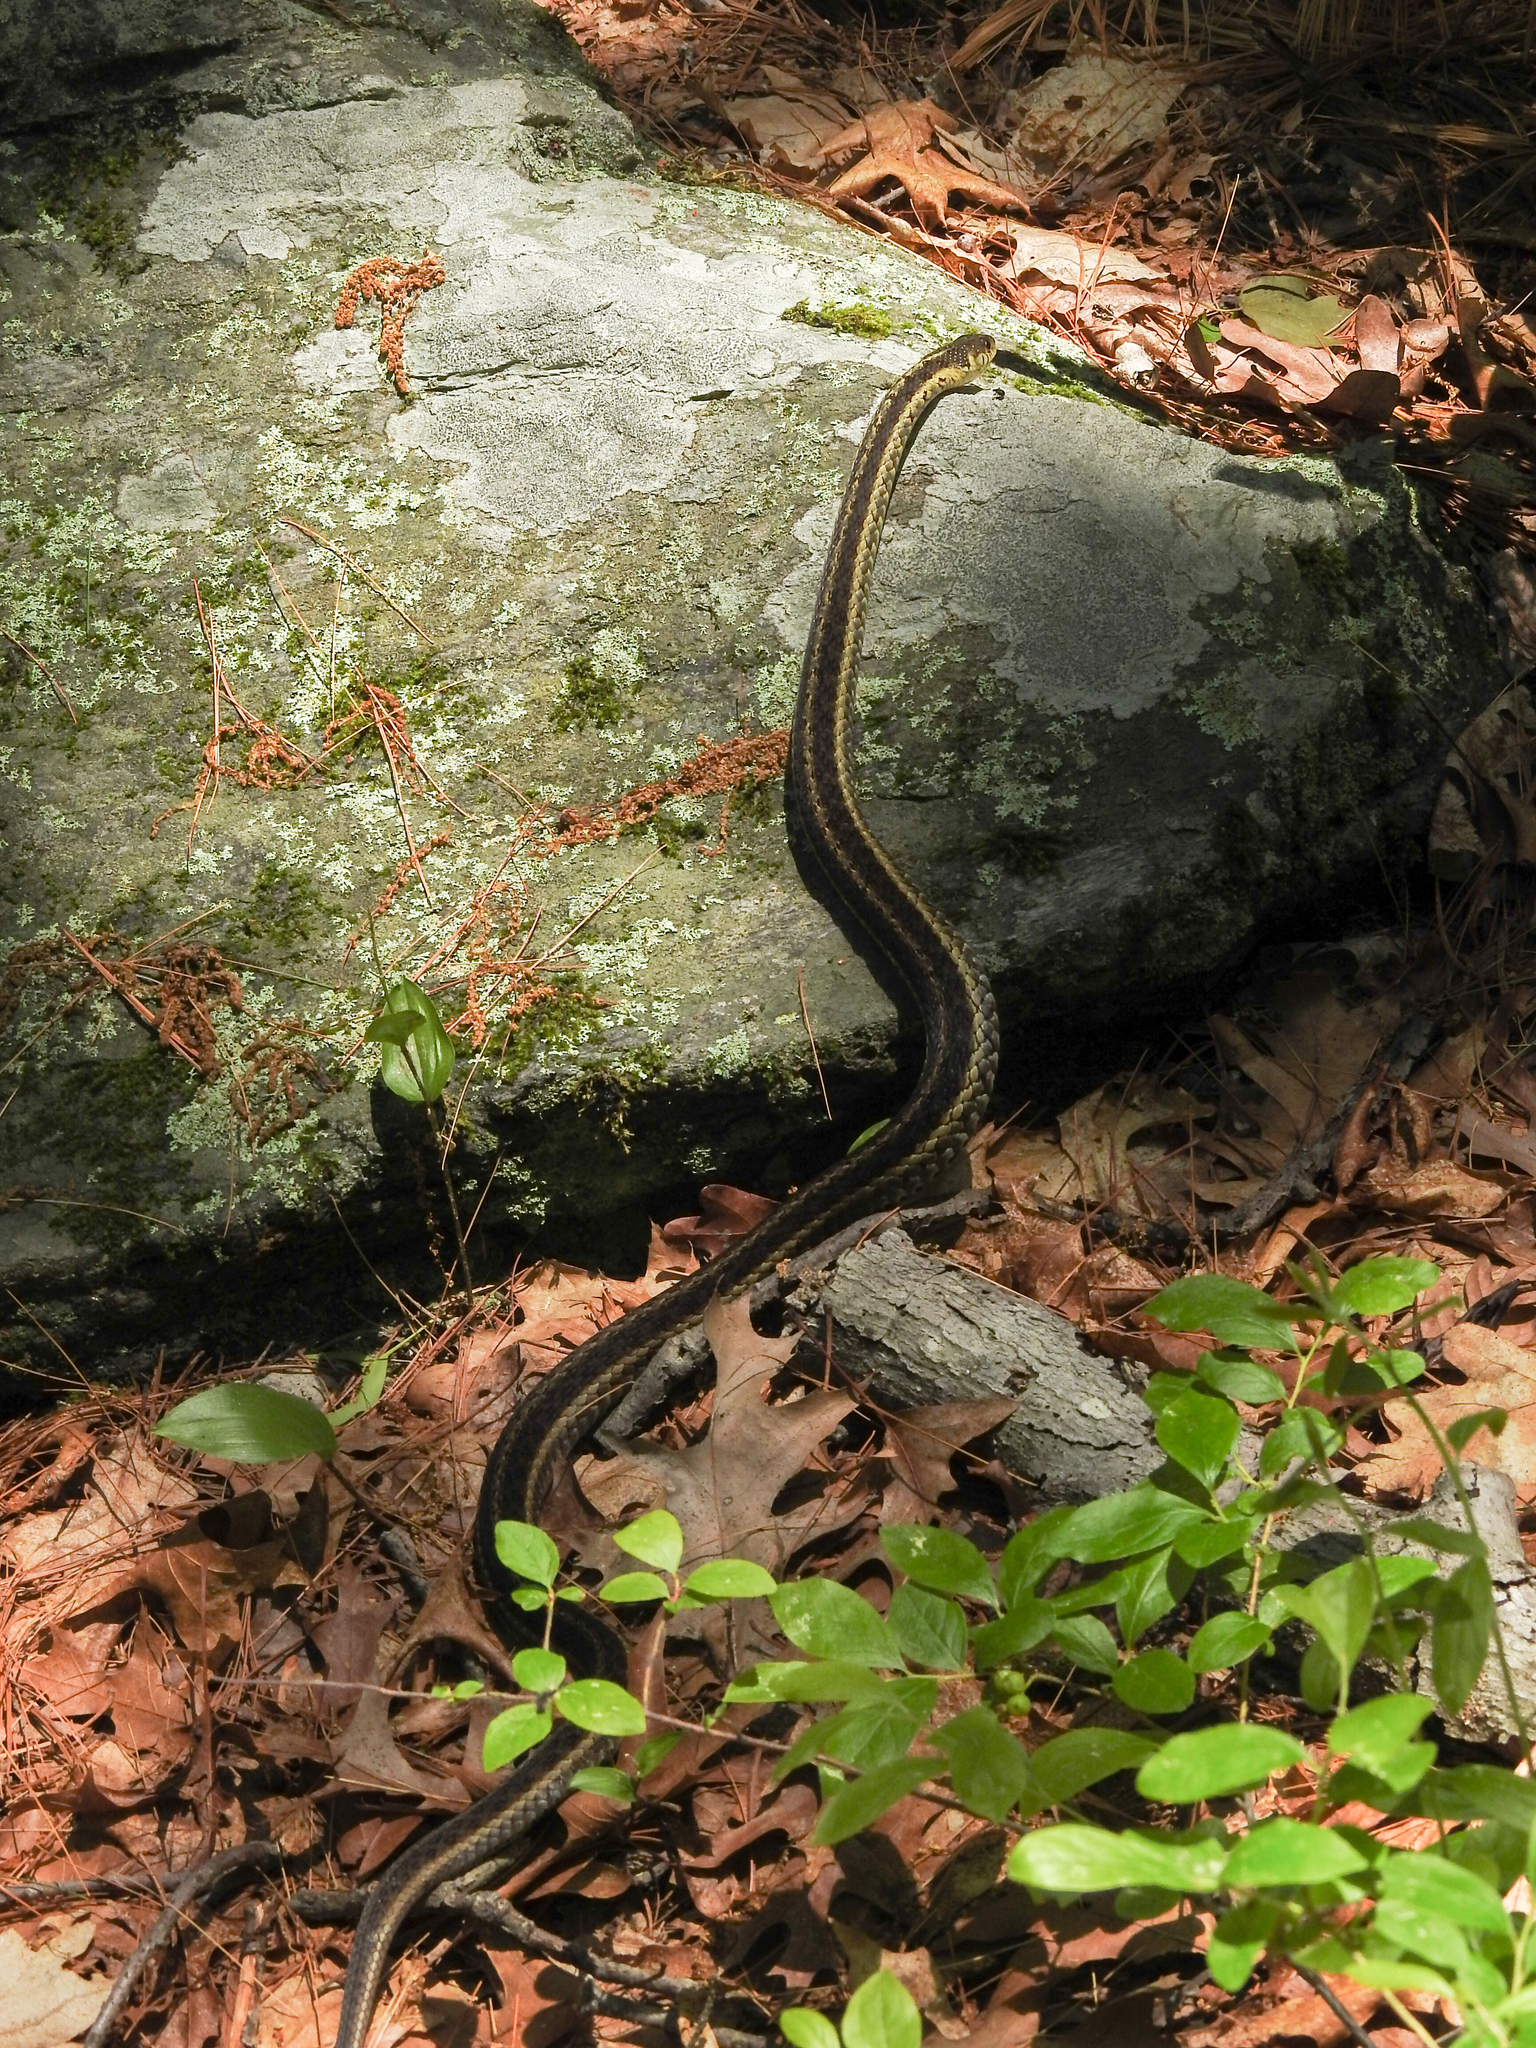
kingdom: Animalia
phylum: Chordata
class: Squamata
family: Colubridae
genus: Thamnophis
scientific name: Thamnophis sirtalis
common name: Common garter snake
